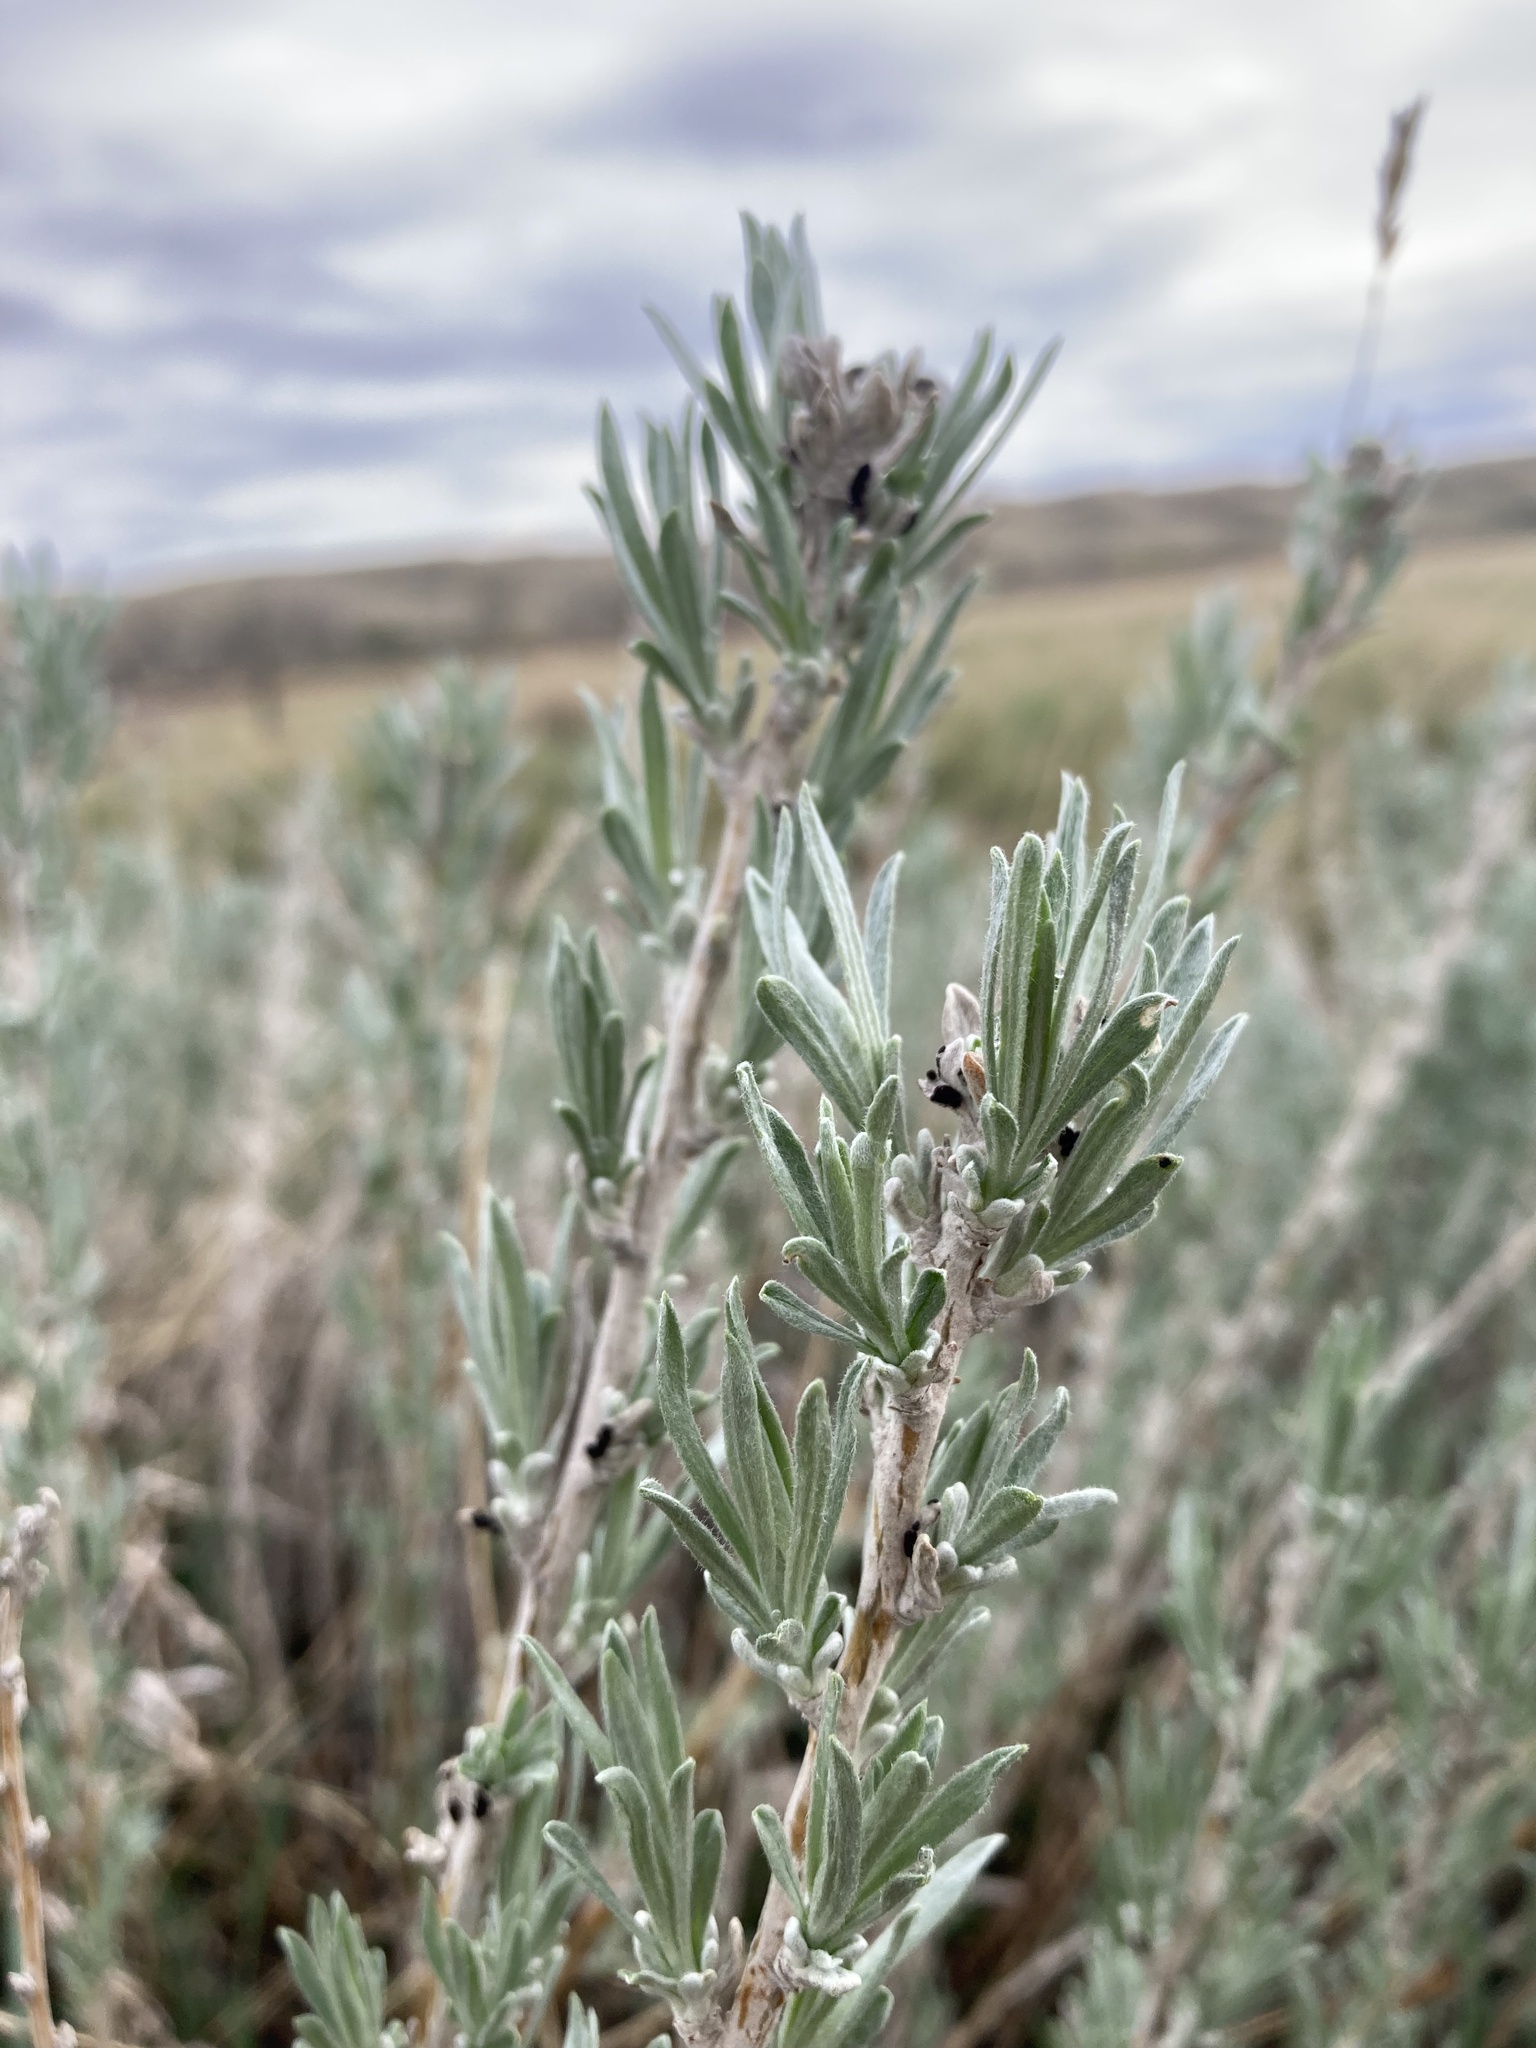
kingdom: Plantae
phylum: Tracheophyta
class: Magnoliopsida
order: Asterales
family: Asteraceae
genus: Artemisia
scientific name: Artemisia cana
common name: Silver sagebrush
